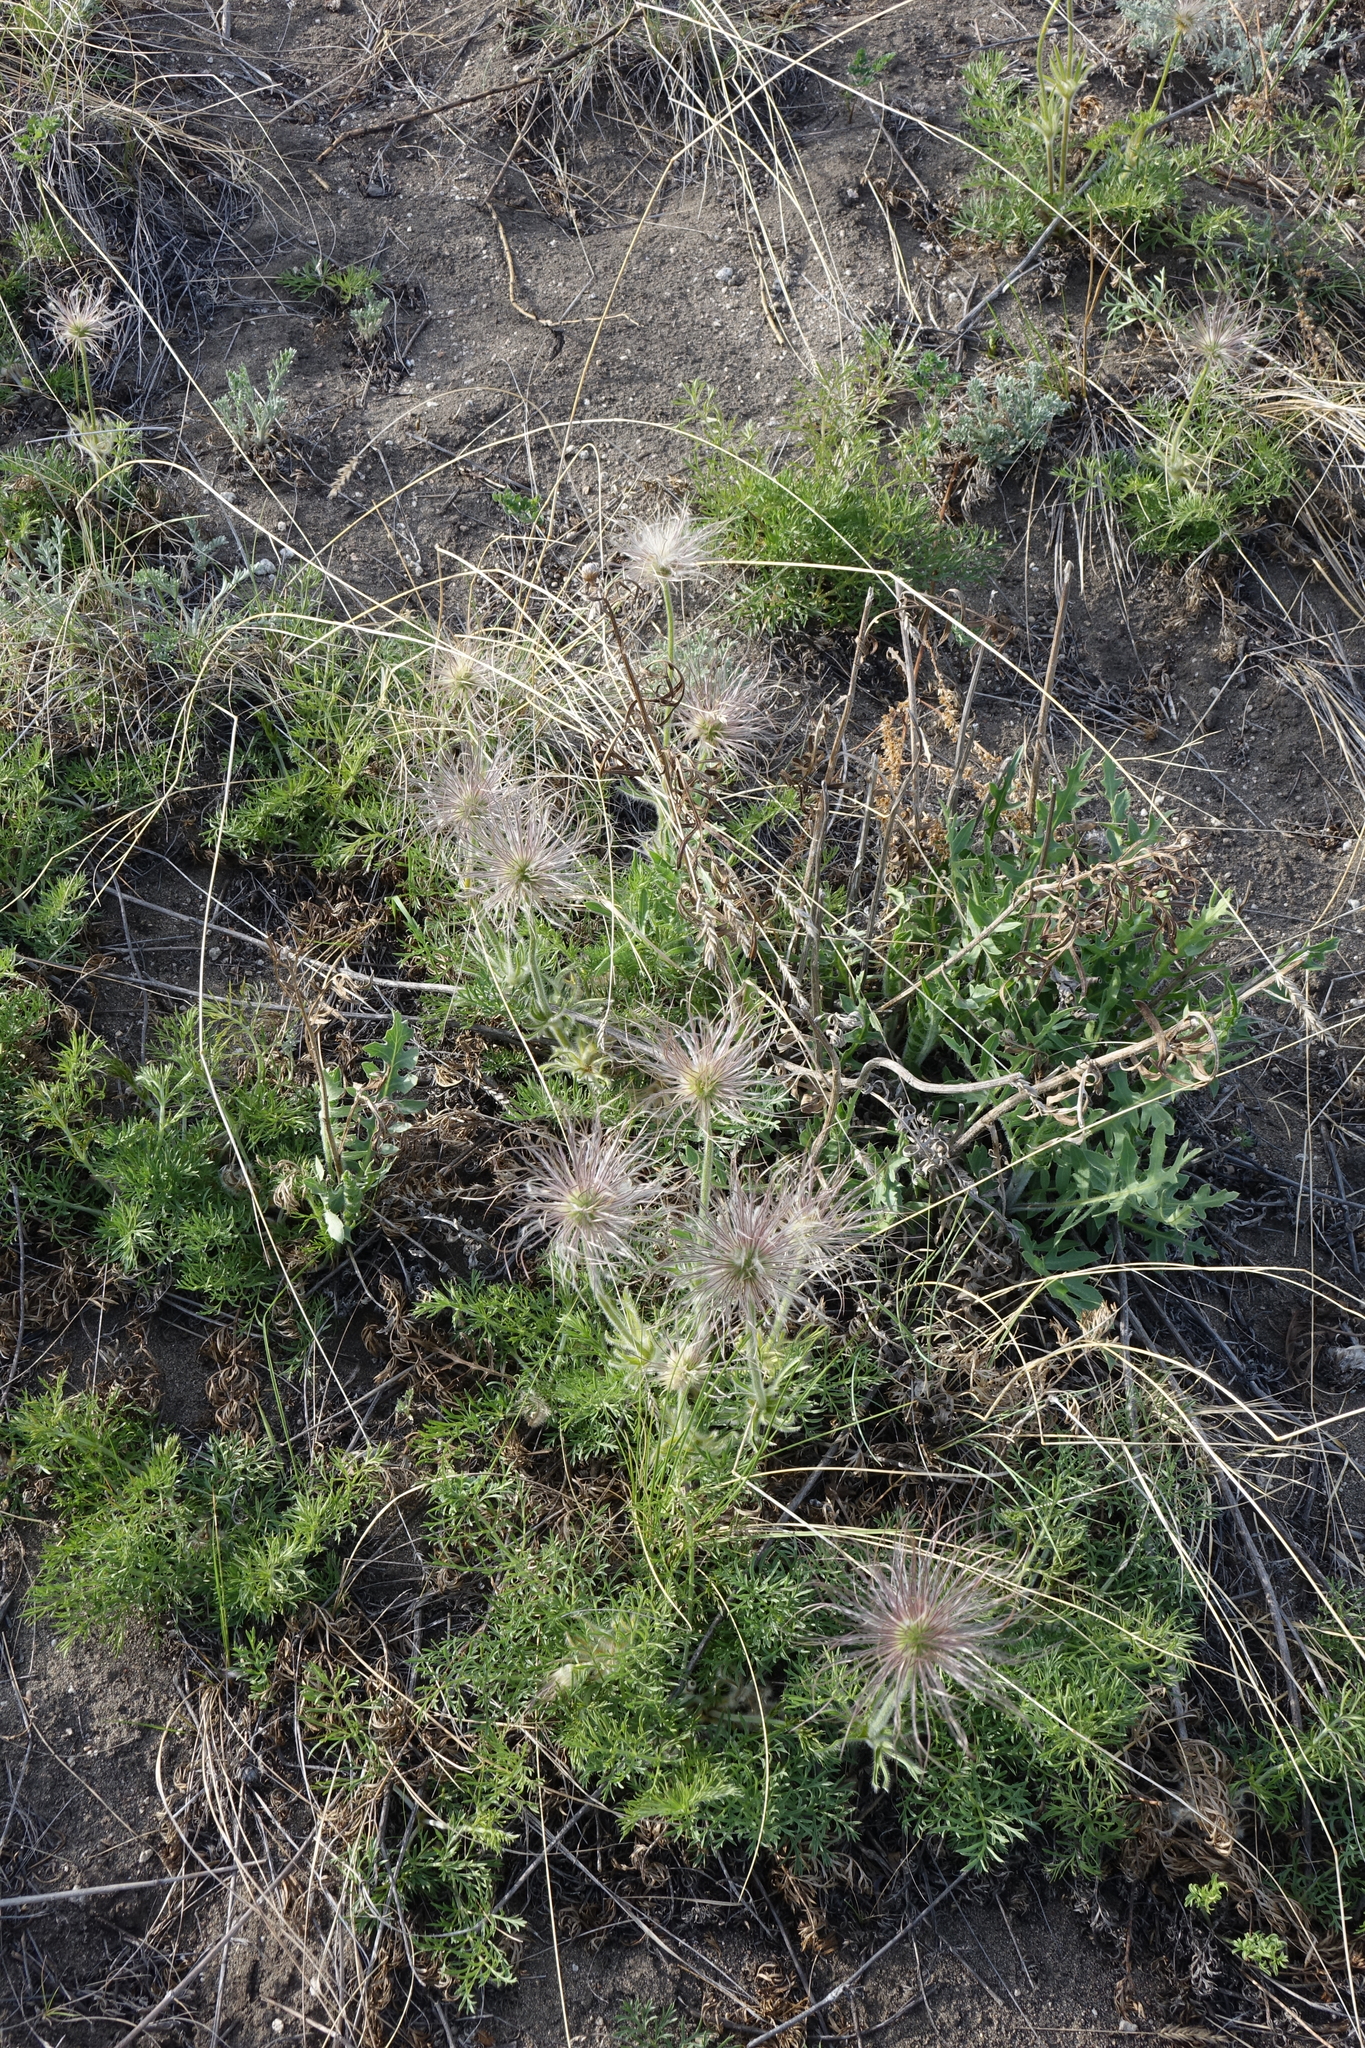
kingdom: Plantae
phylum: Tracheophyta
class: Magnoliopsida
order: Ranunculales
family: Ranunculaceae
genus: Pulsatilla
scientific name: Pulsatilla turczaninovii
